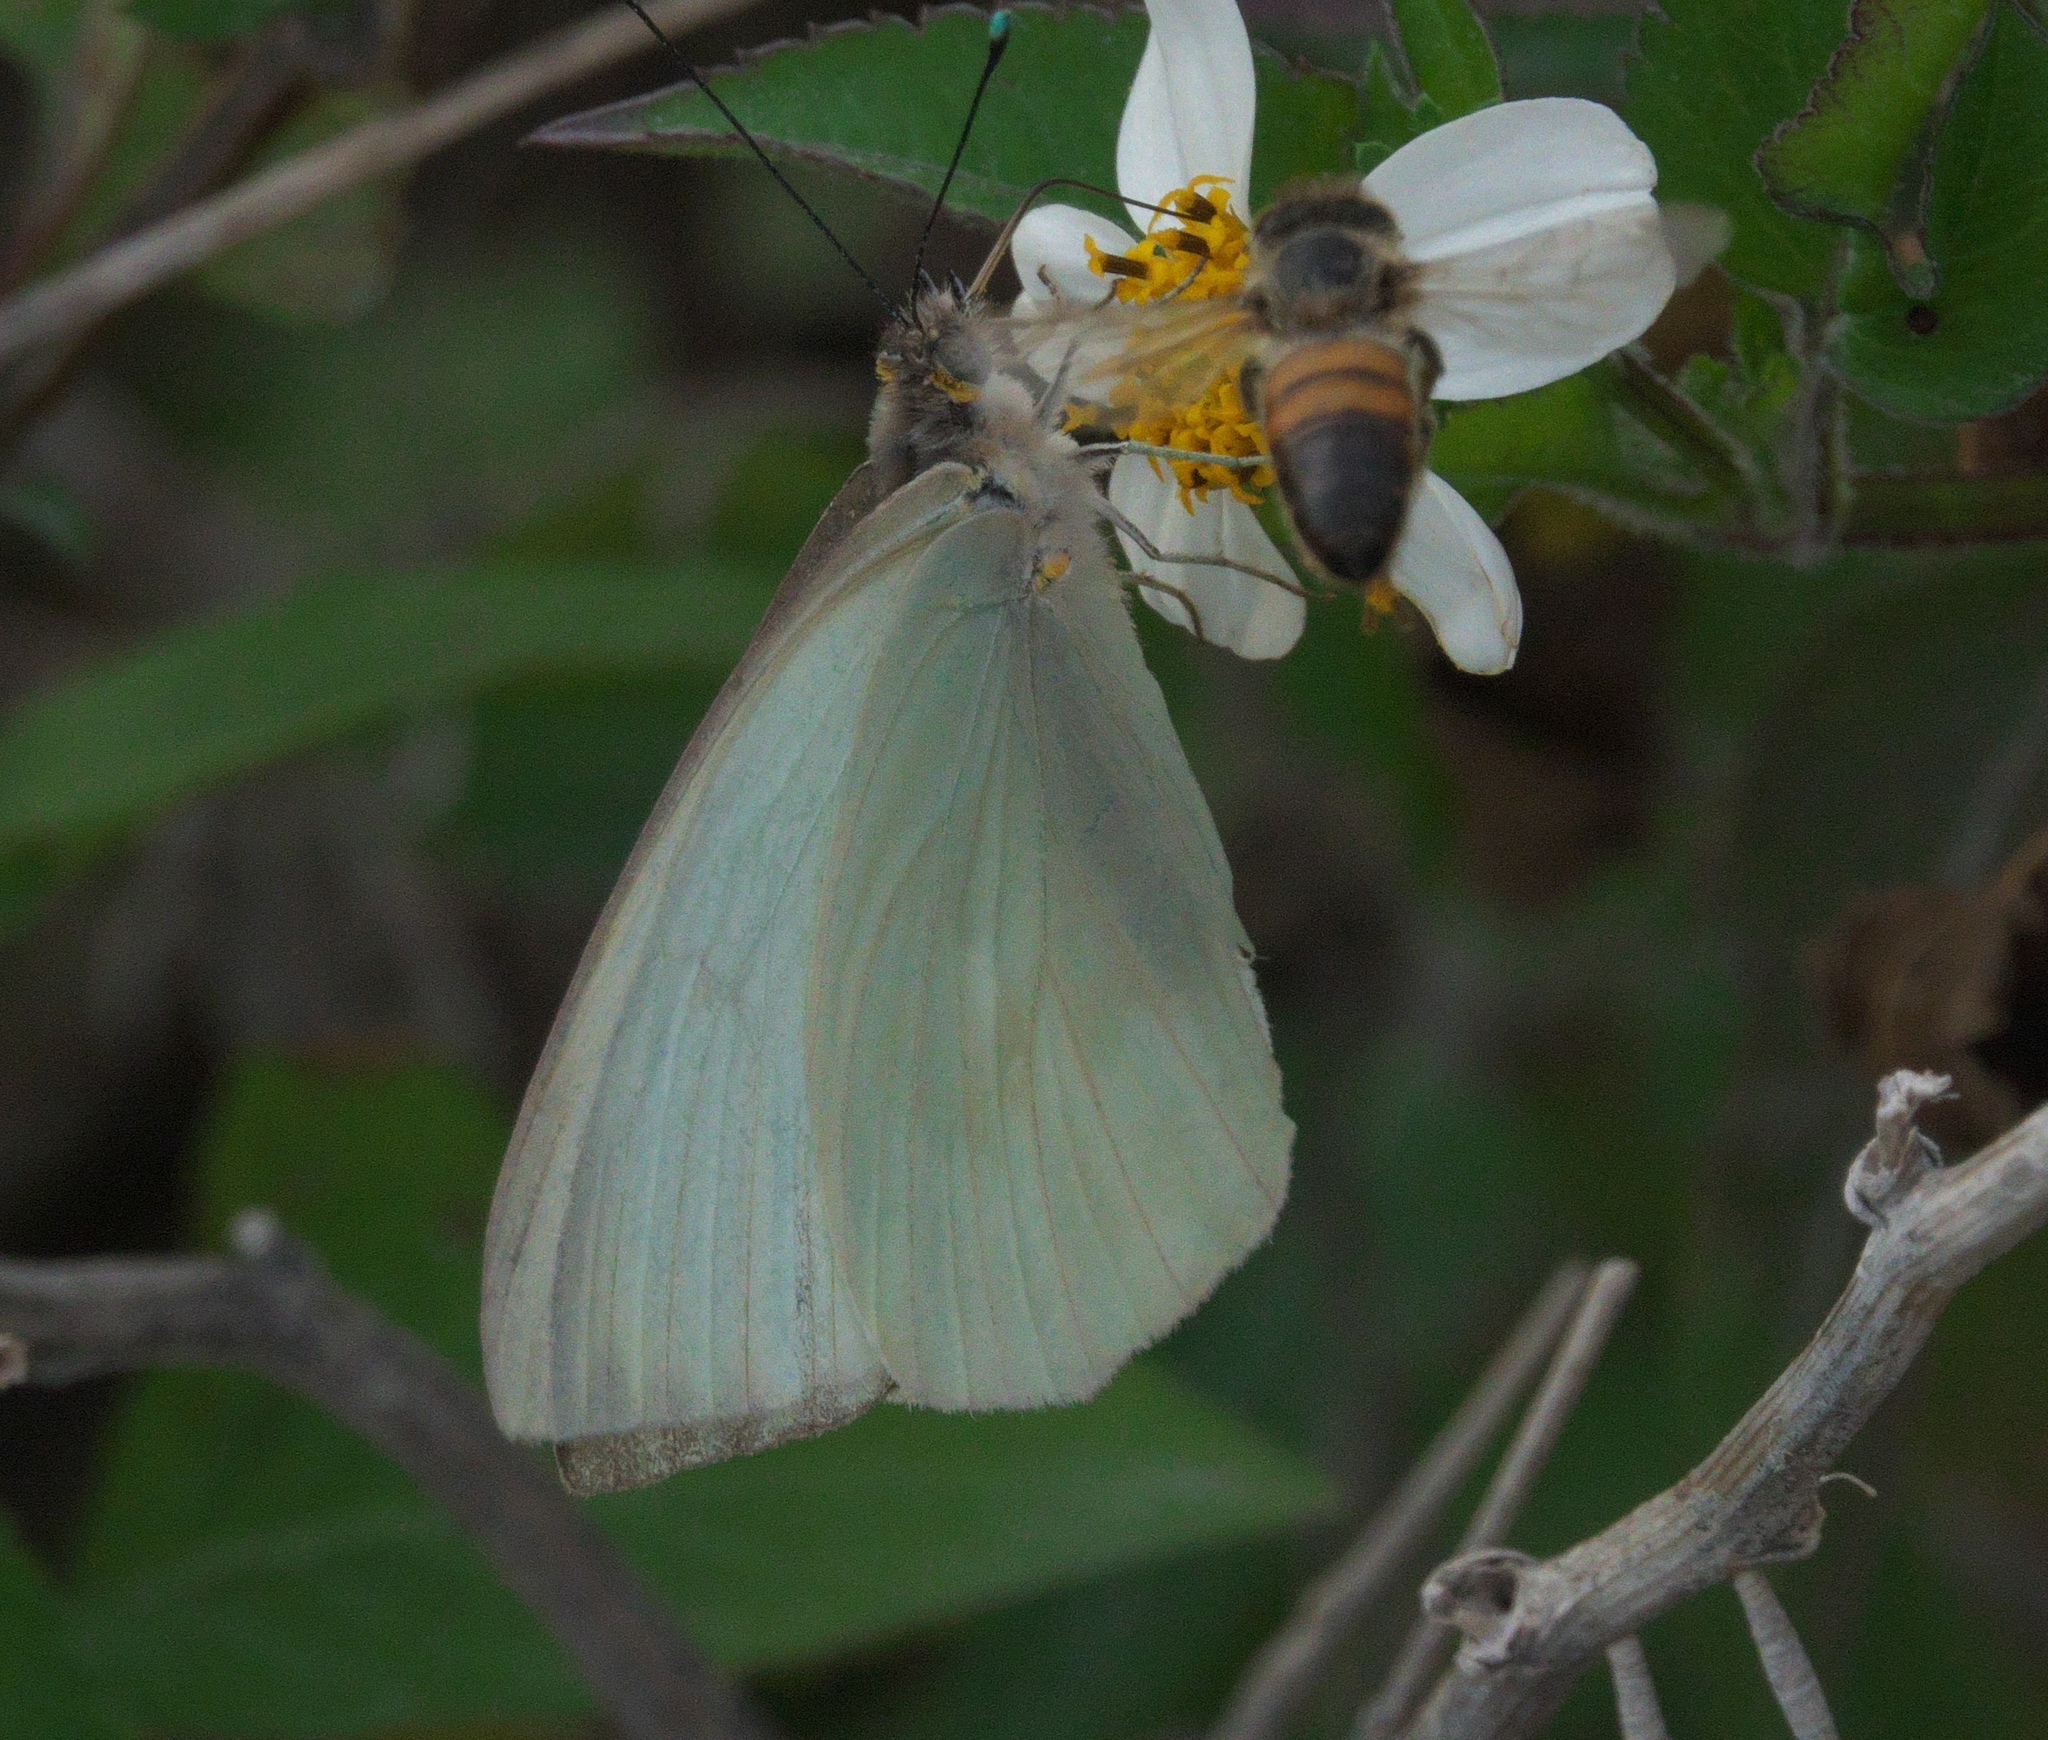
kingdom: Animalia
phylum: Arthropoda
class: Insecta
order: Lepidoptera
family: Pieridae
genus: Ascia
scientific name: Ascia monuste
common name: Great southern white
